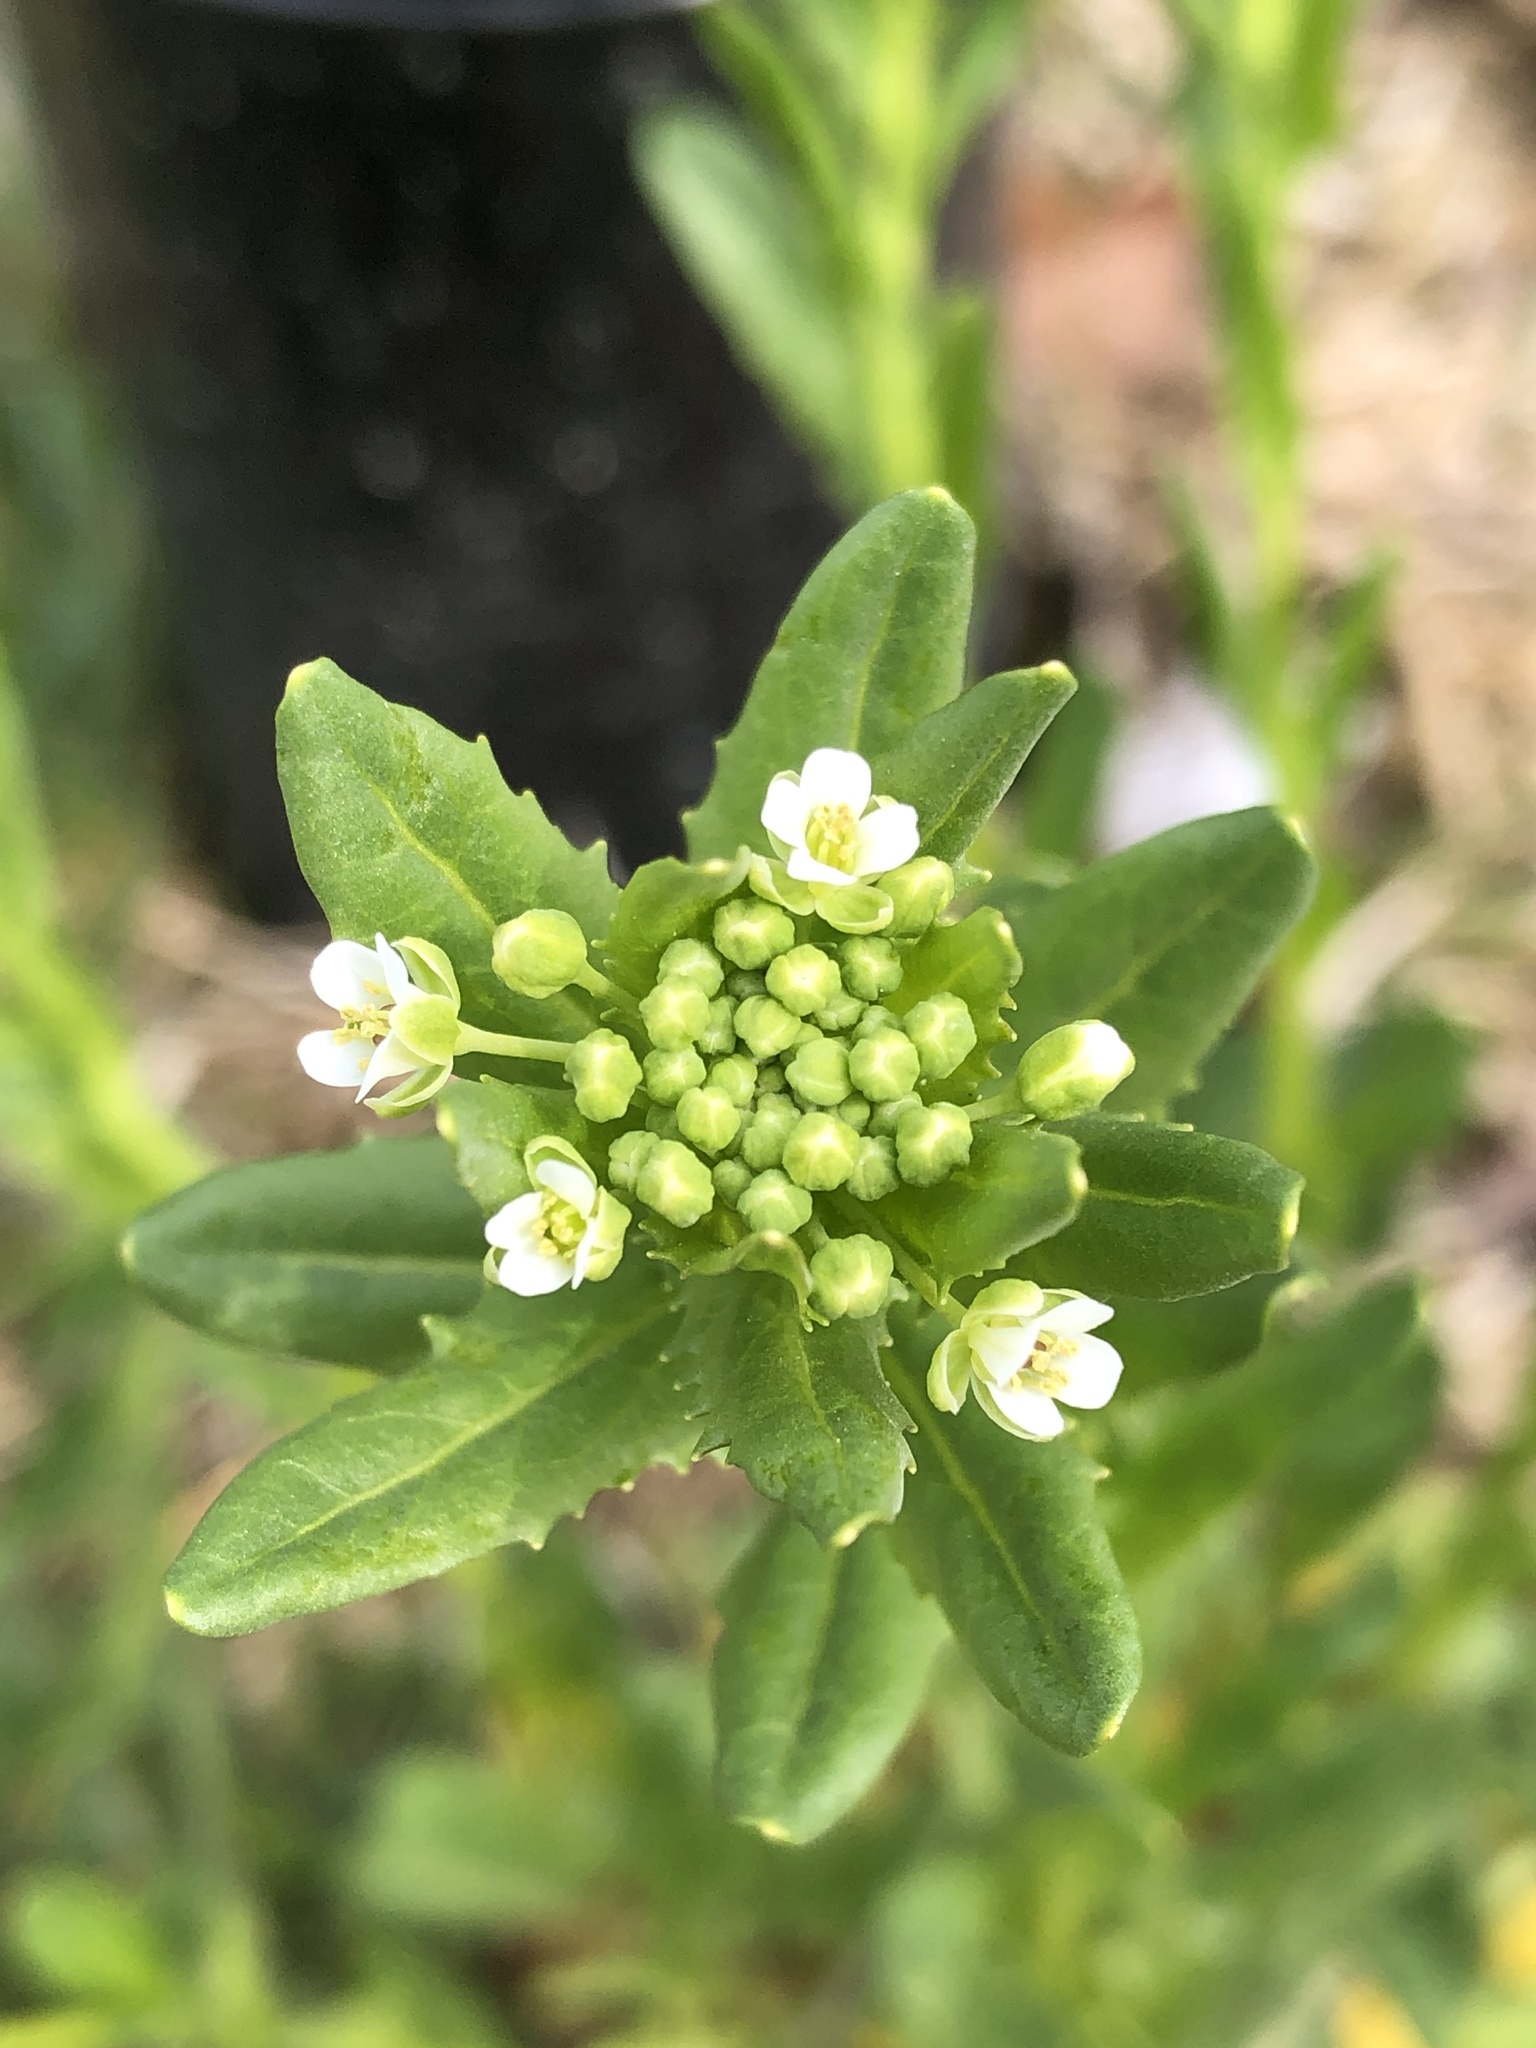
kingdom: Plantae
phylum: Tracheophyta
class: Magnoliopsida
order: Brassicales
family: Brassicaceae
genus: Thlaspi
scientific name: Thlaspi arvense
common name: Field pennycress
